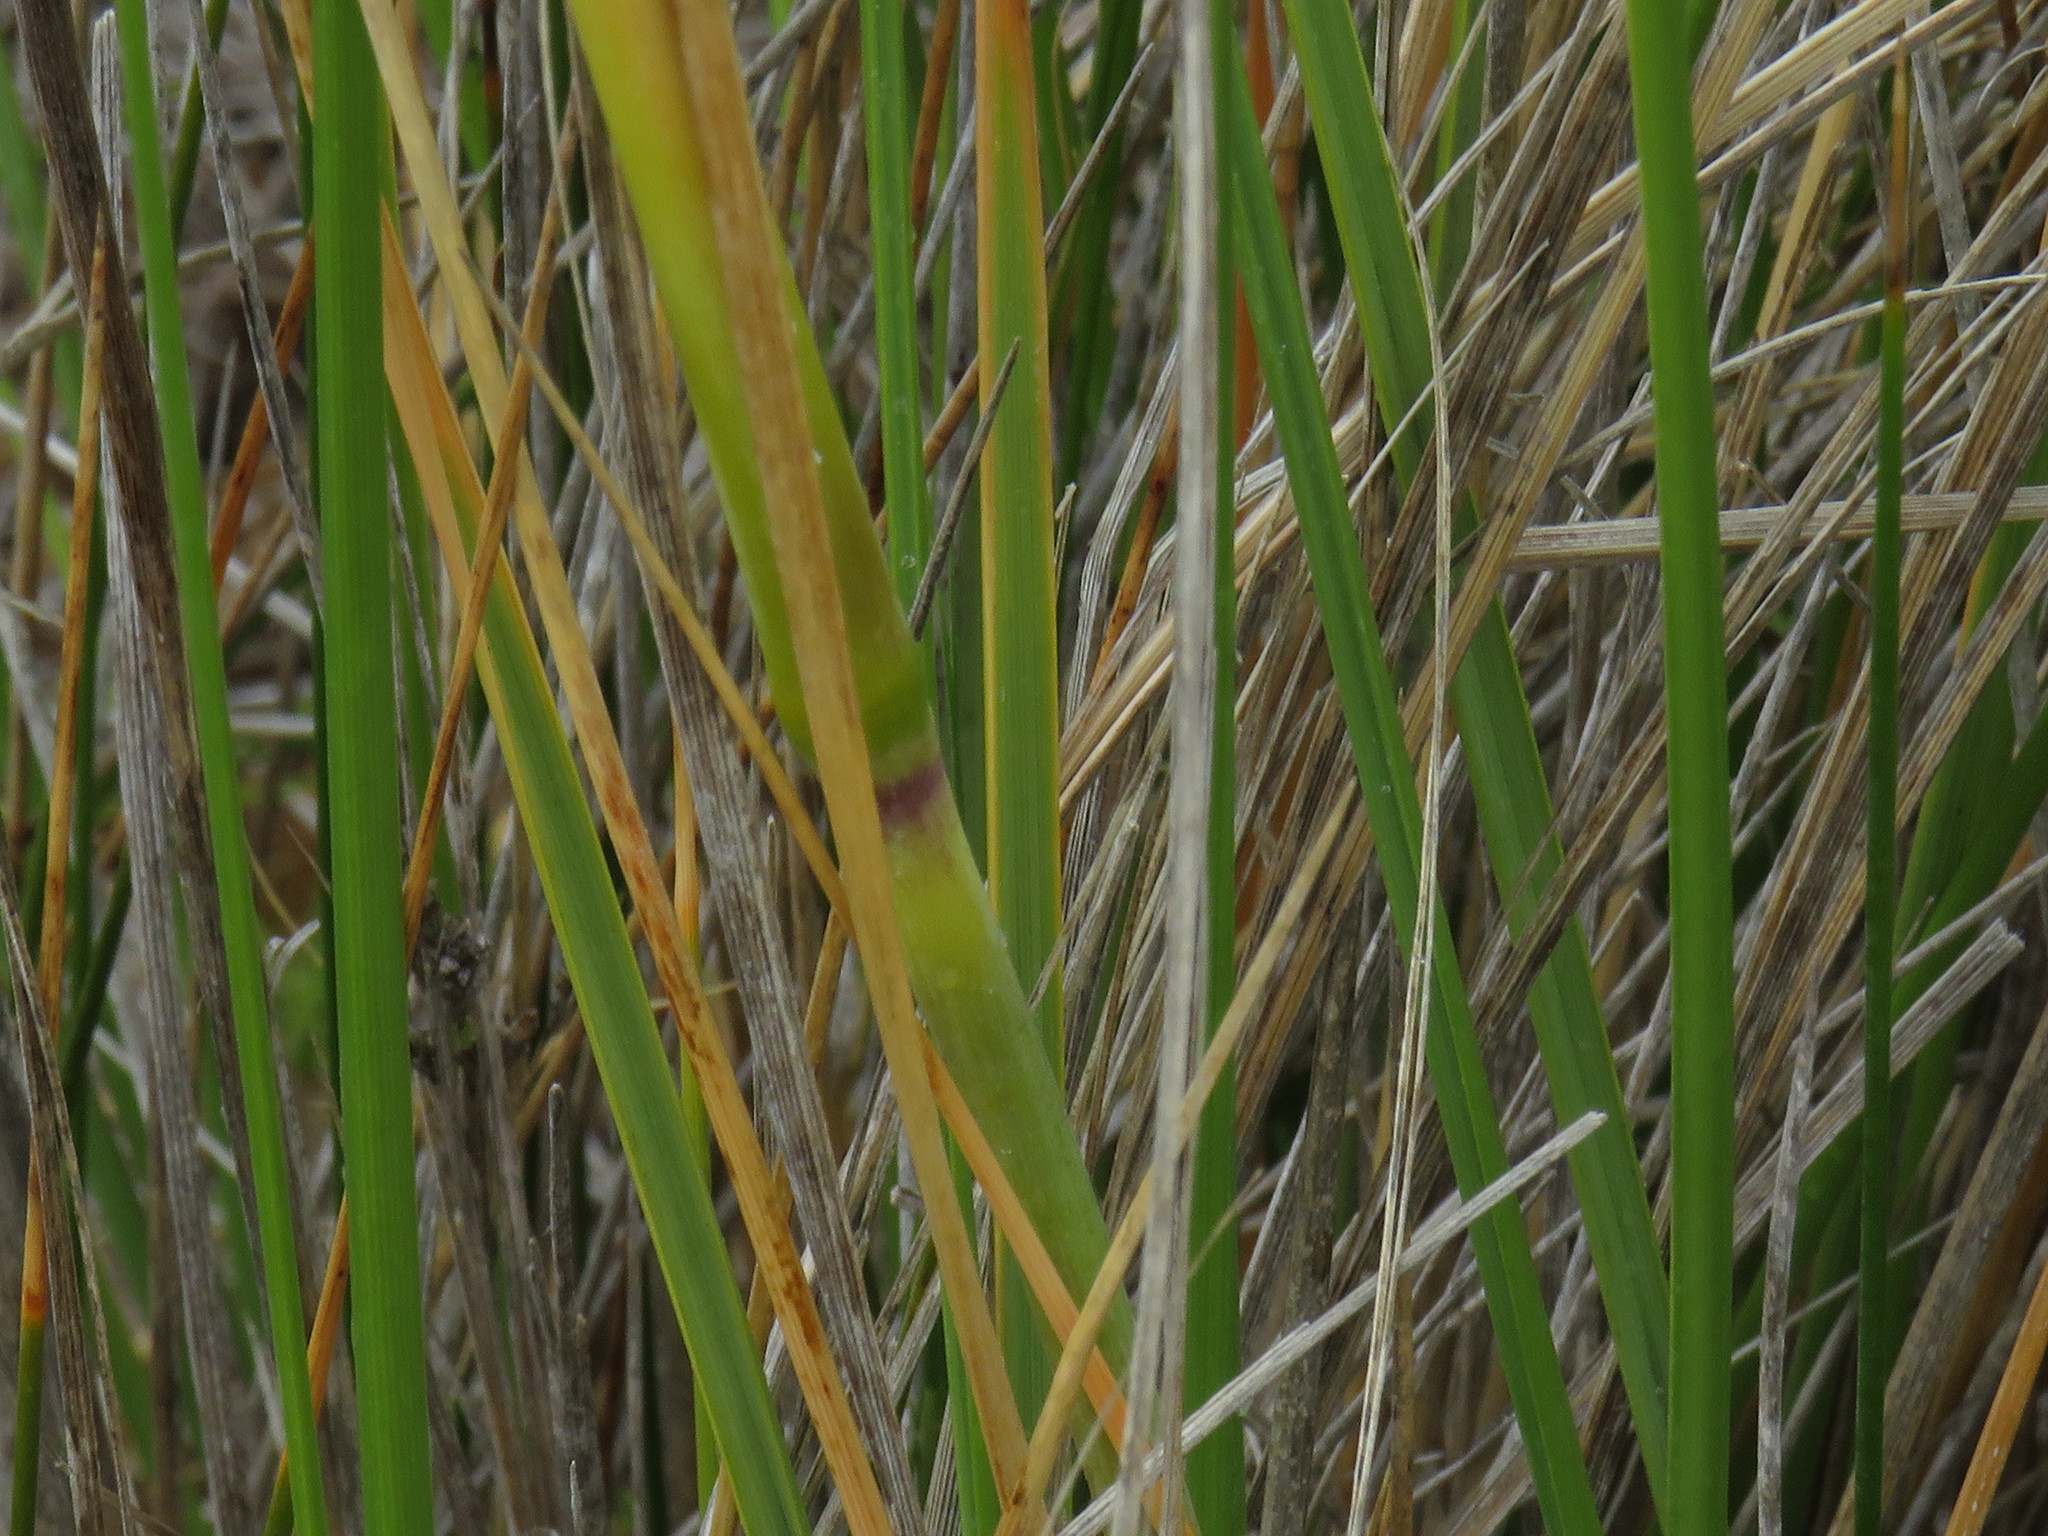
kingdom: Plantae
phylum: Tracheophyta
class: Liliopsida
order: Poales
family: Poaceae
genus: Capeochloa
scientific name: Capeochloa cincta
